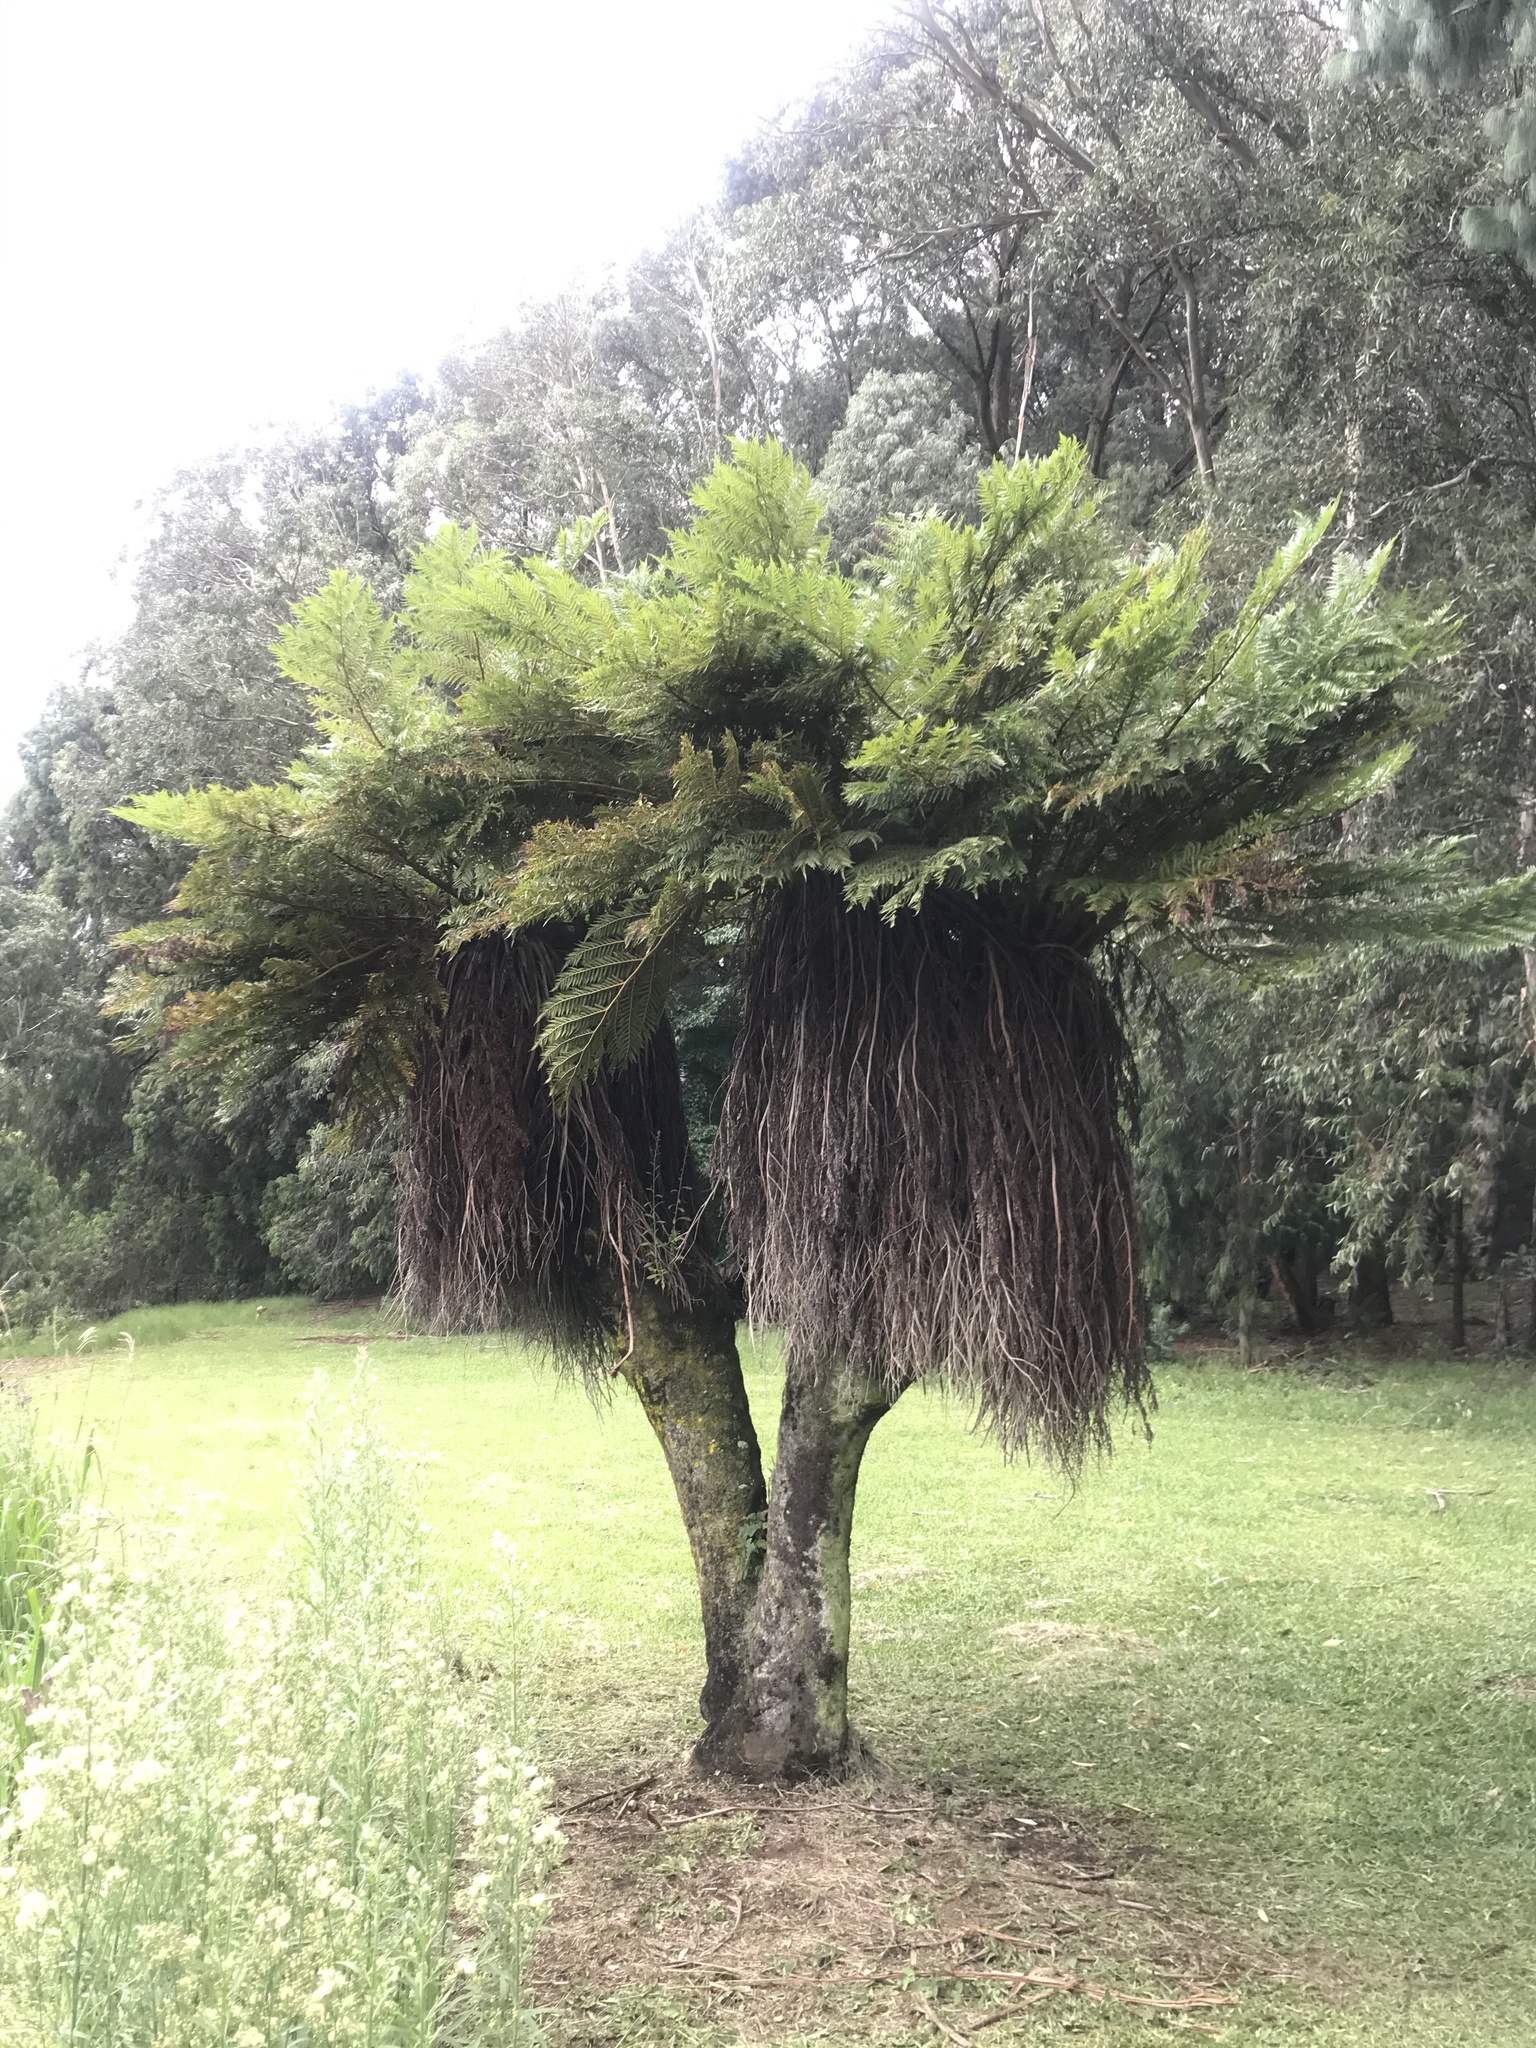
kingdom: Plantae
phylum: Tracheophyta
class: Polypodiopsida
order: Cyatheales
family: Cyatheaceae
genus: Alsophila
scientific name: Alsophila dregei
